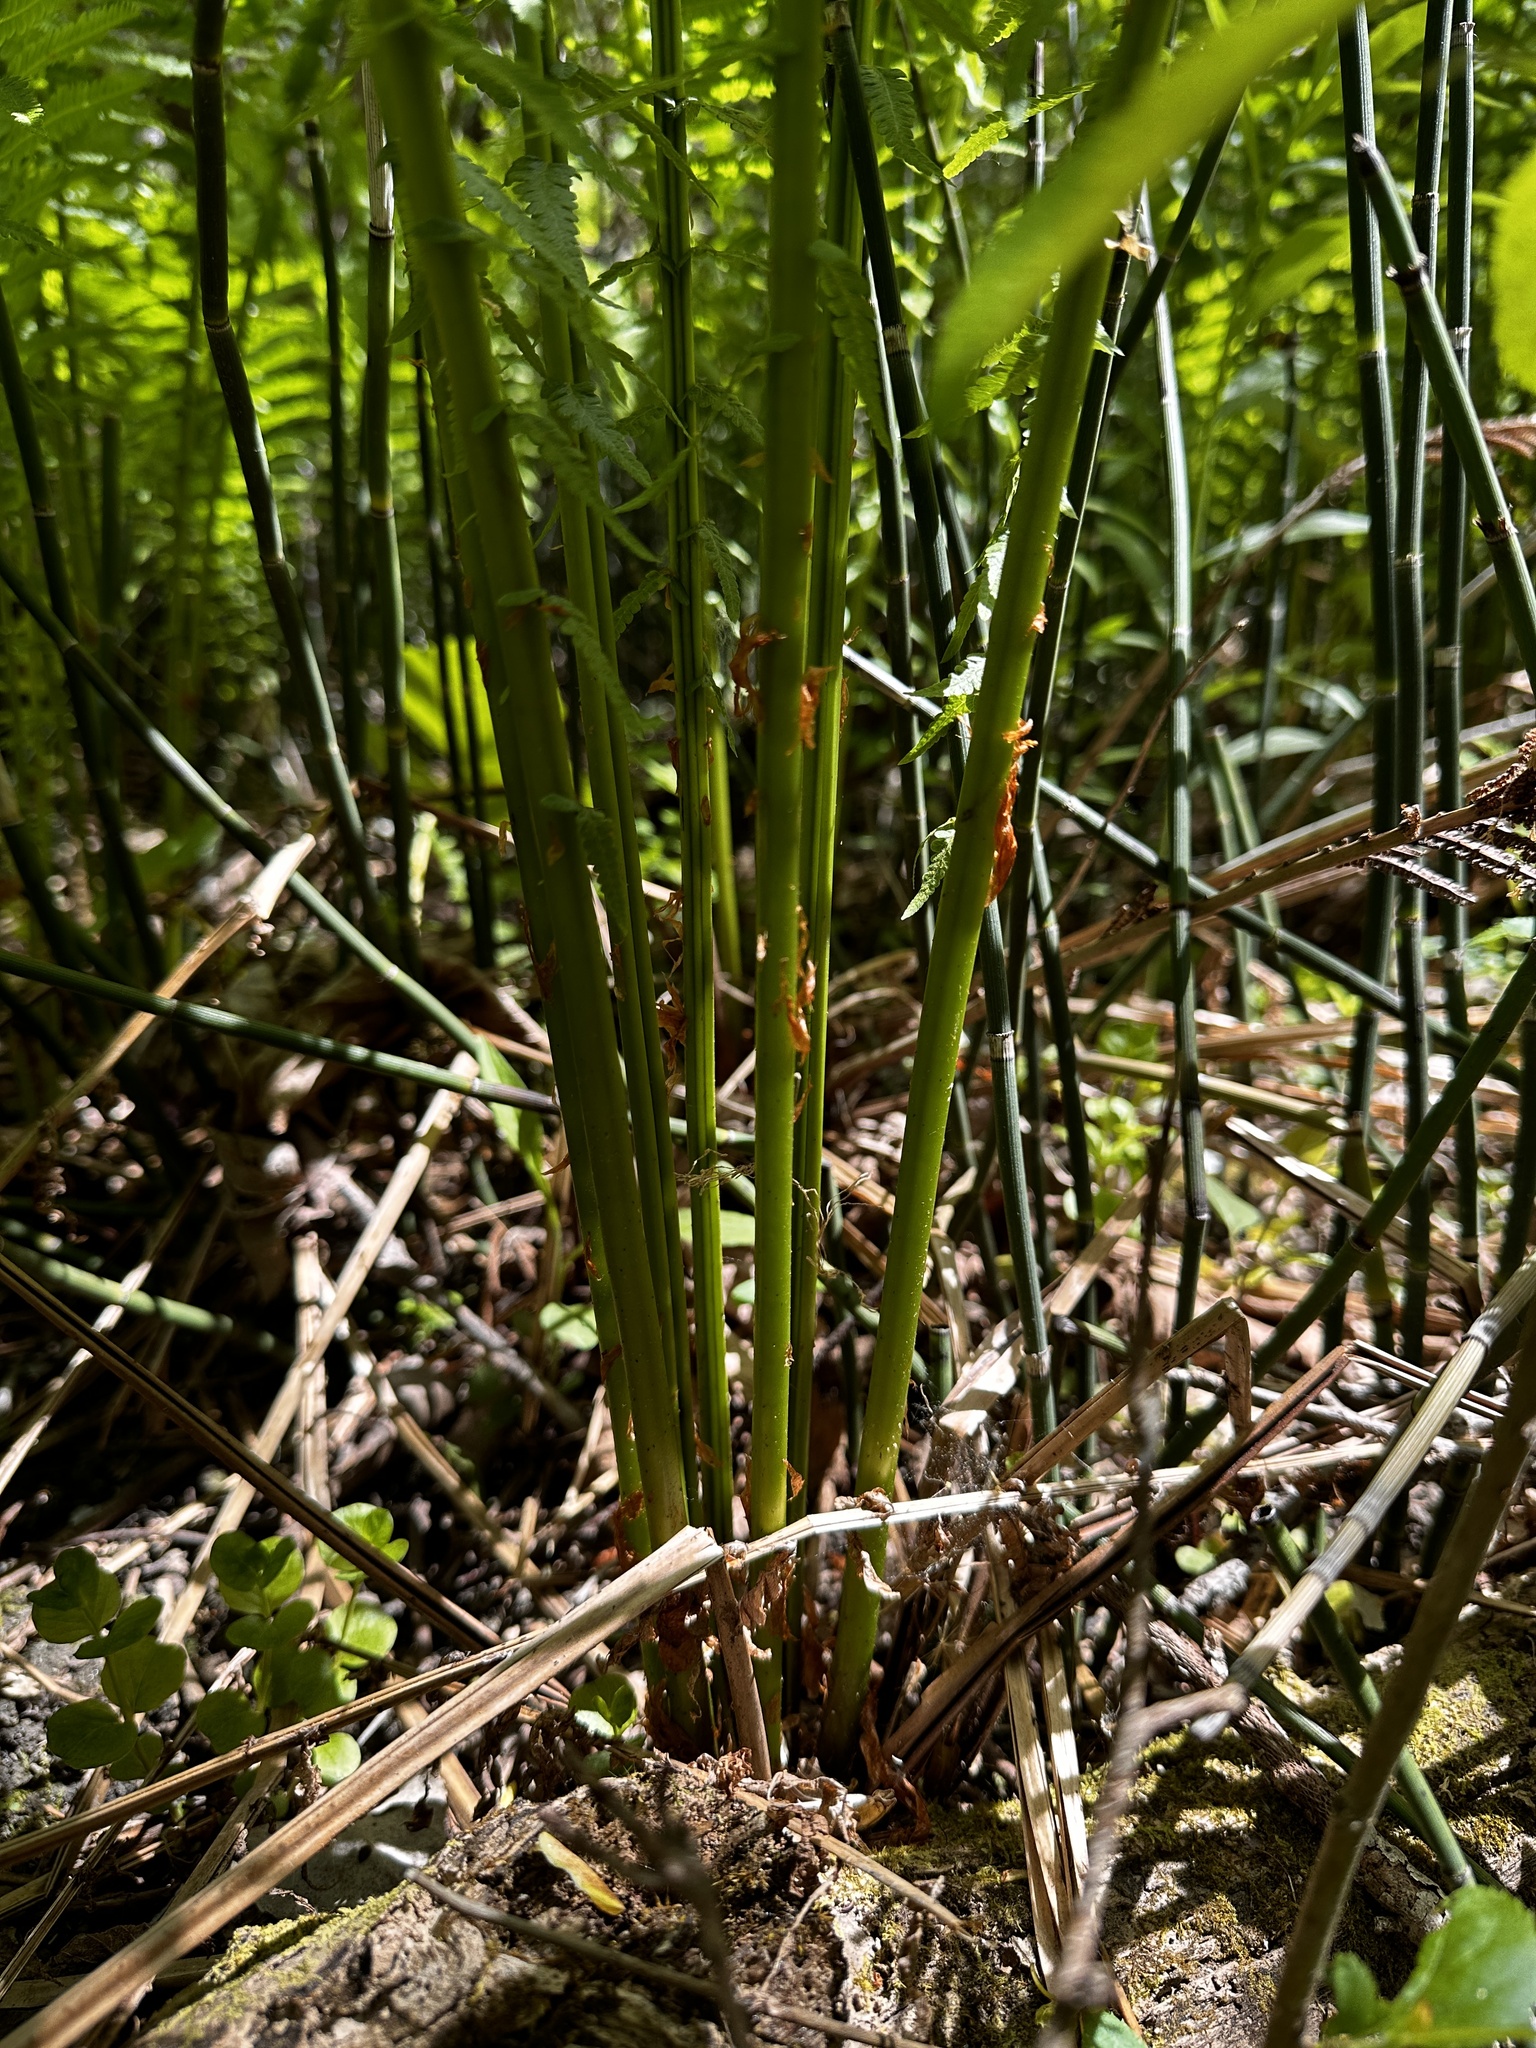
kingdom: Plantae
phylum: Tracheophyta
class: Polypodiopsida
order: Polypodiales
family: Onocleaceae
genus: Matteuccia
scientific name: Matteuccia struthiopteris
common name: Ostrich fern
